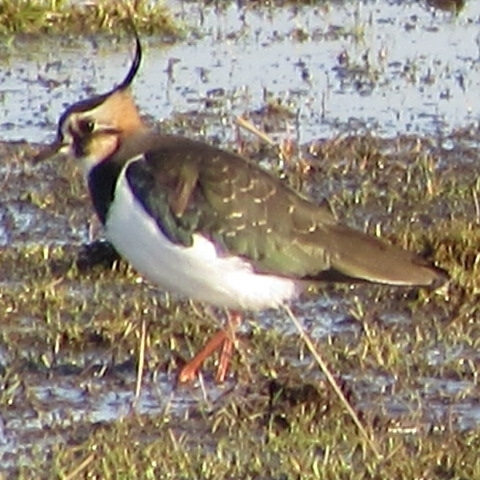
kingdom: Animalia
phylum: Chordata
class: Aves
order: Charadriiformes
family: Charadriidae
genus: Vanellus
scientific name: Vanellus vanellus
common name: Northern lapwing
